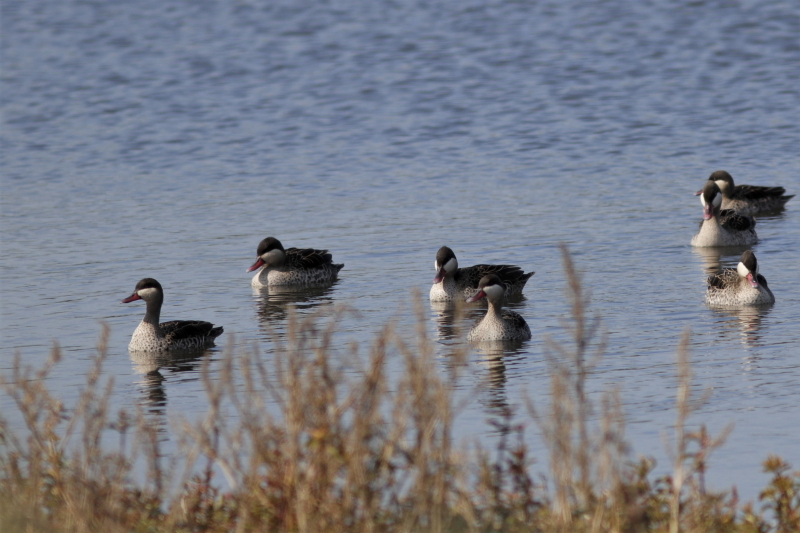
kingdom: Animalia
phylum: Chordata
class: Aves
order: Anseriformes
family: Anatidae
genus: Anas
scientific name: Anas erythrorhyncha
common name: Red-billed teal
